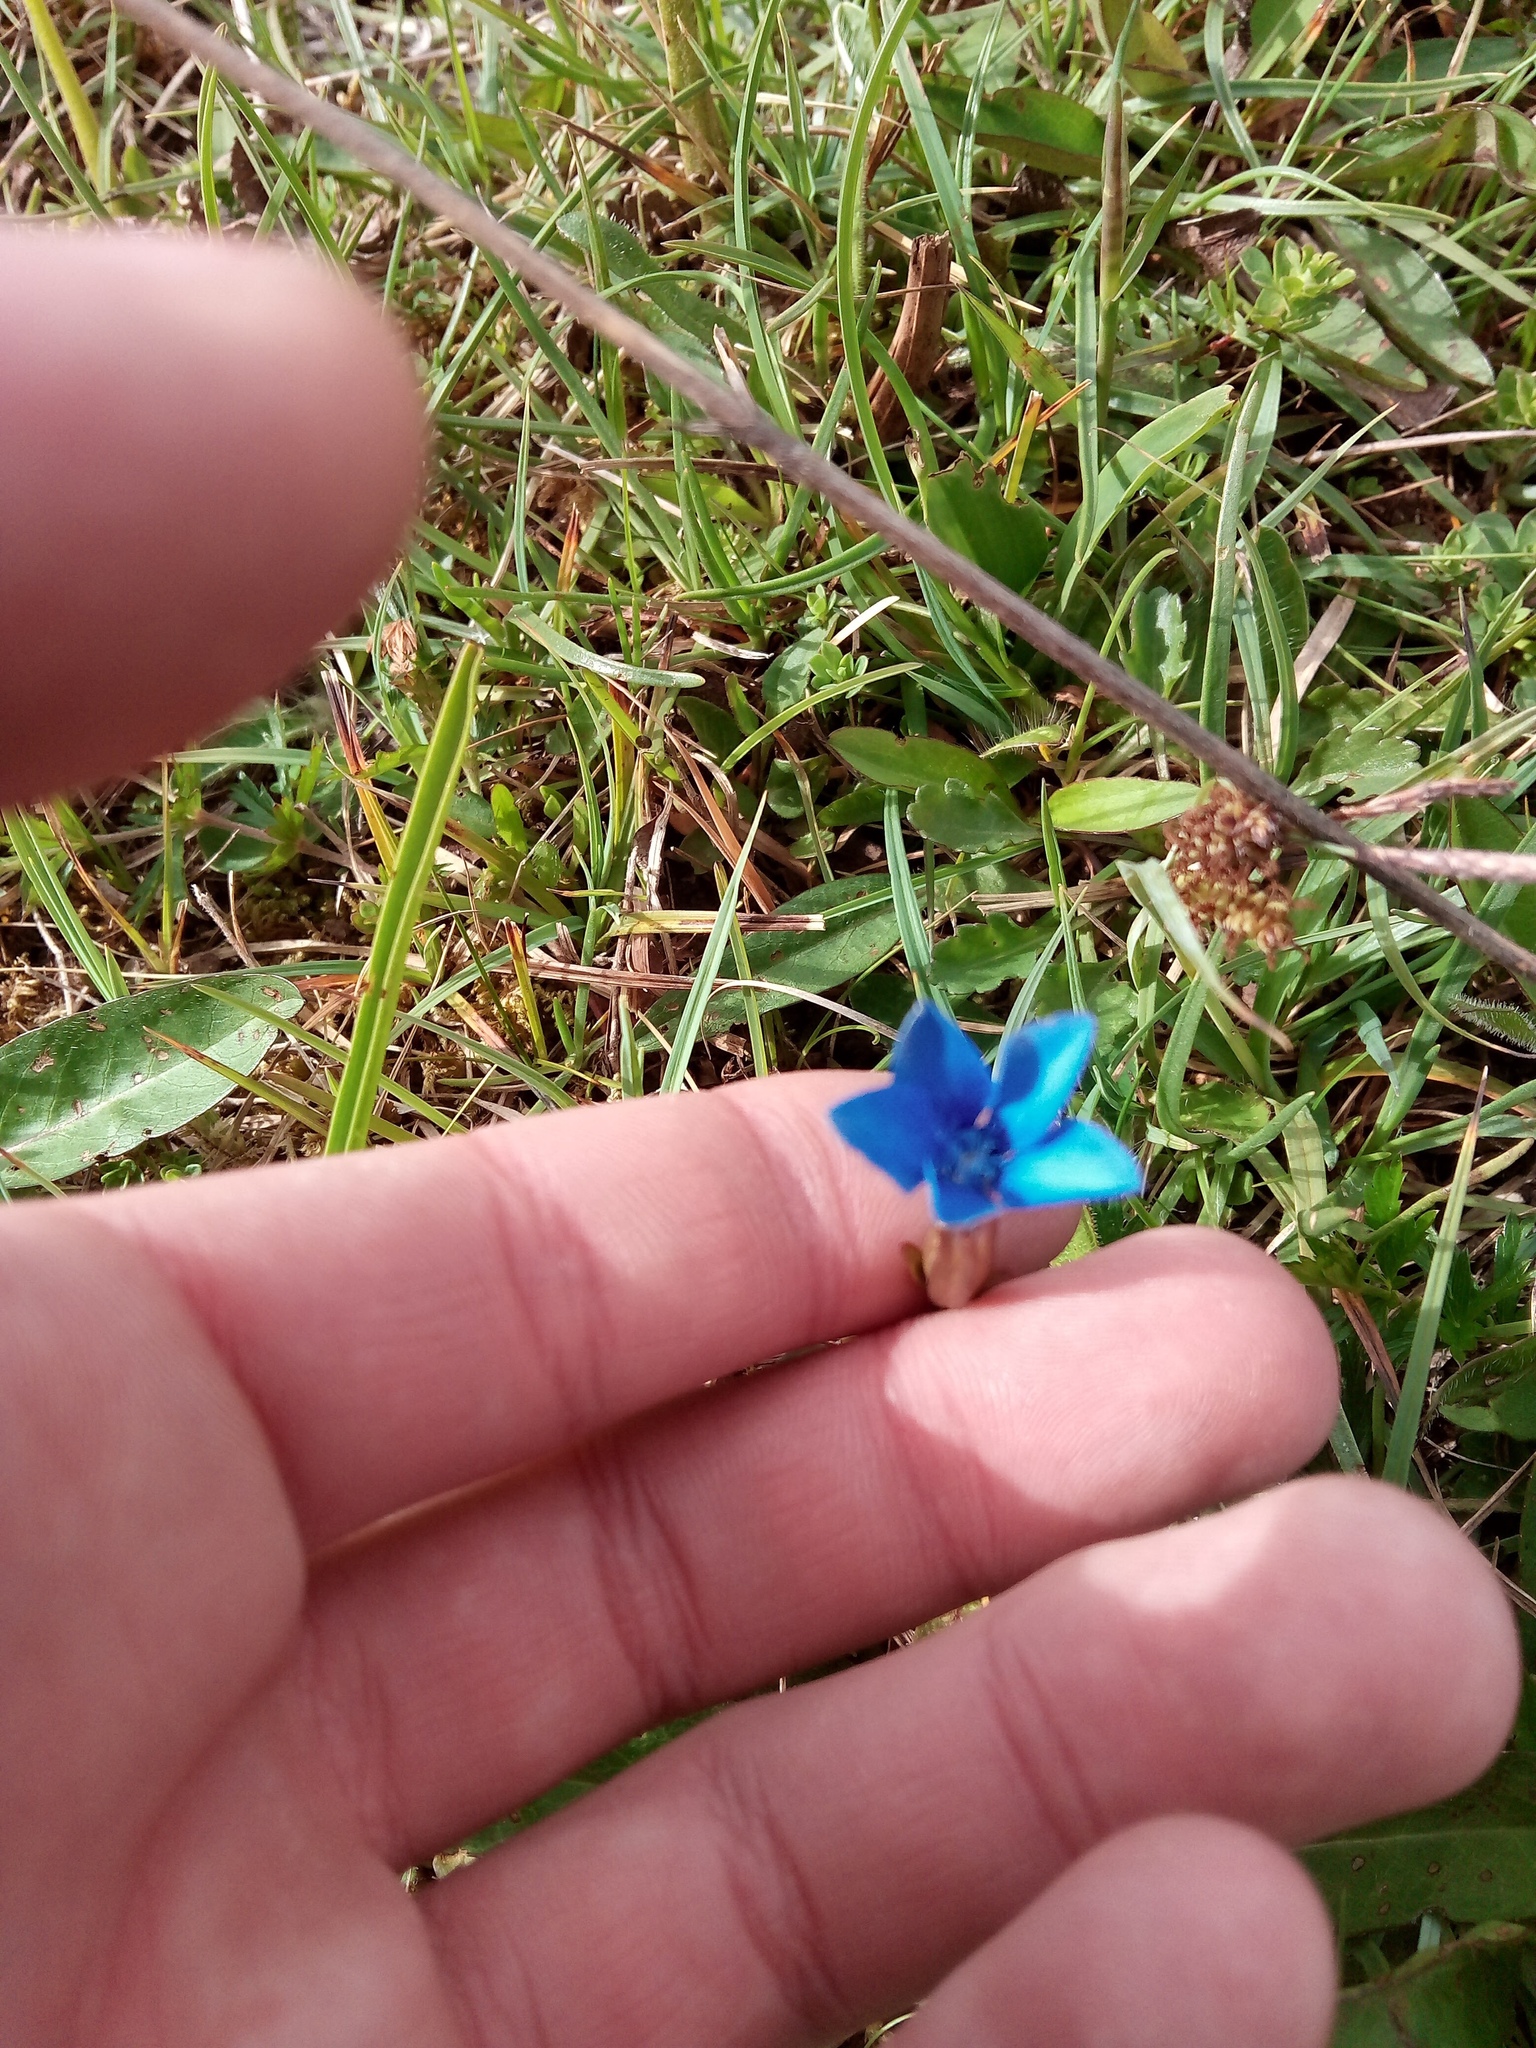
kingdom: Plantae
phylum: Tracheophyta
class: Magnoliopsida
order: Gentianales
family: Gentianaceae
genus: Gentiana
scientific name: Gentiana verna
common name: Spring gentian
